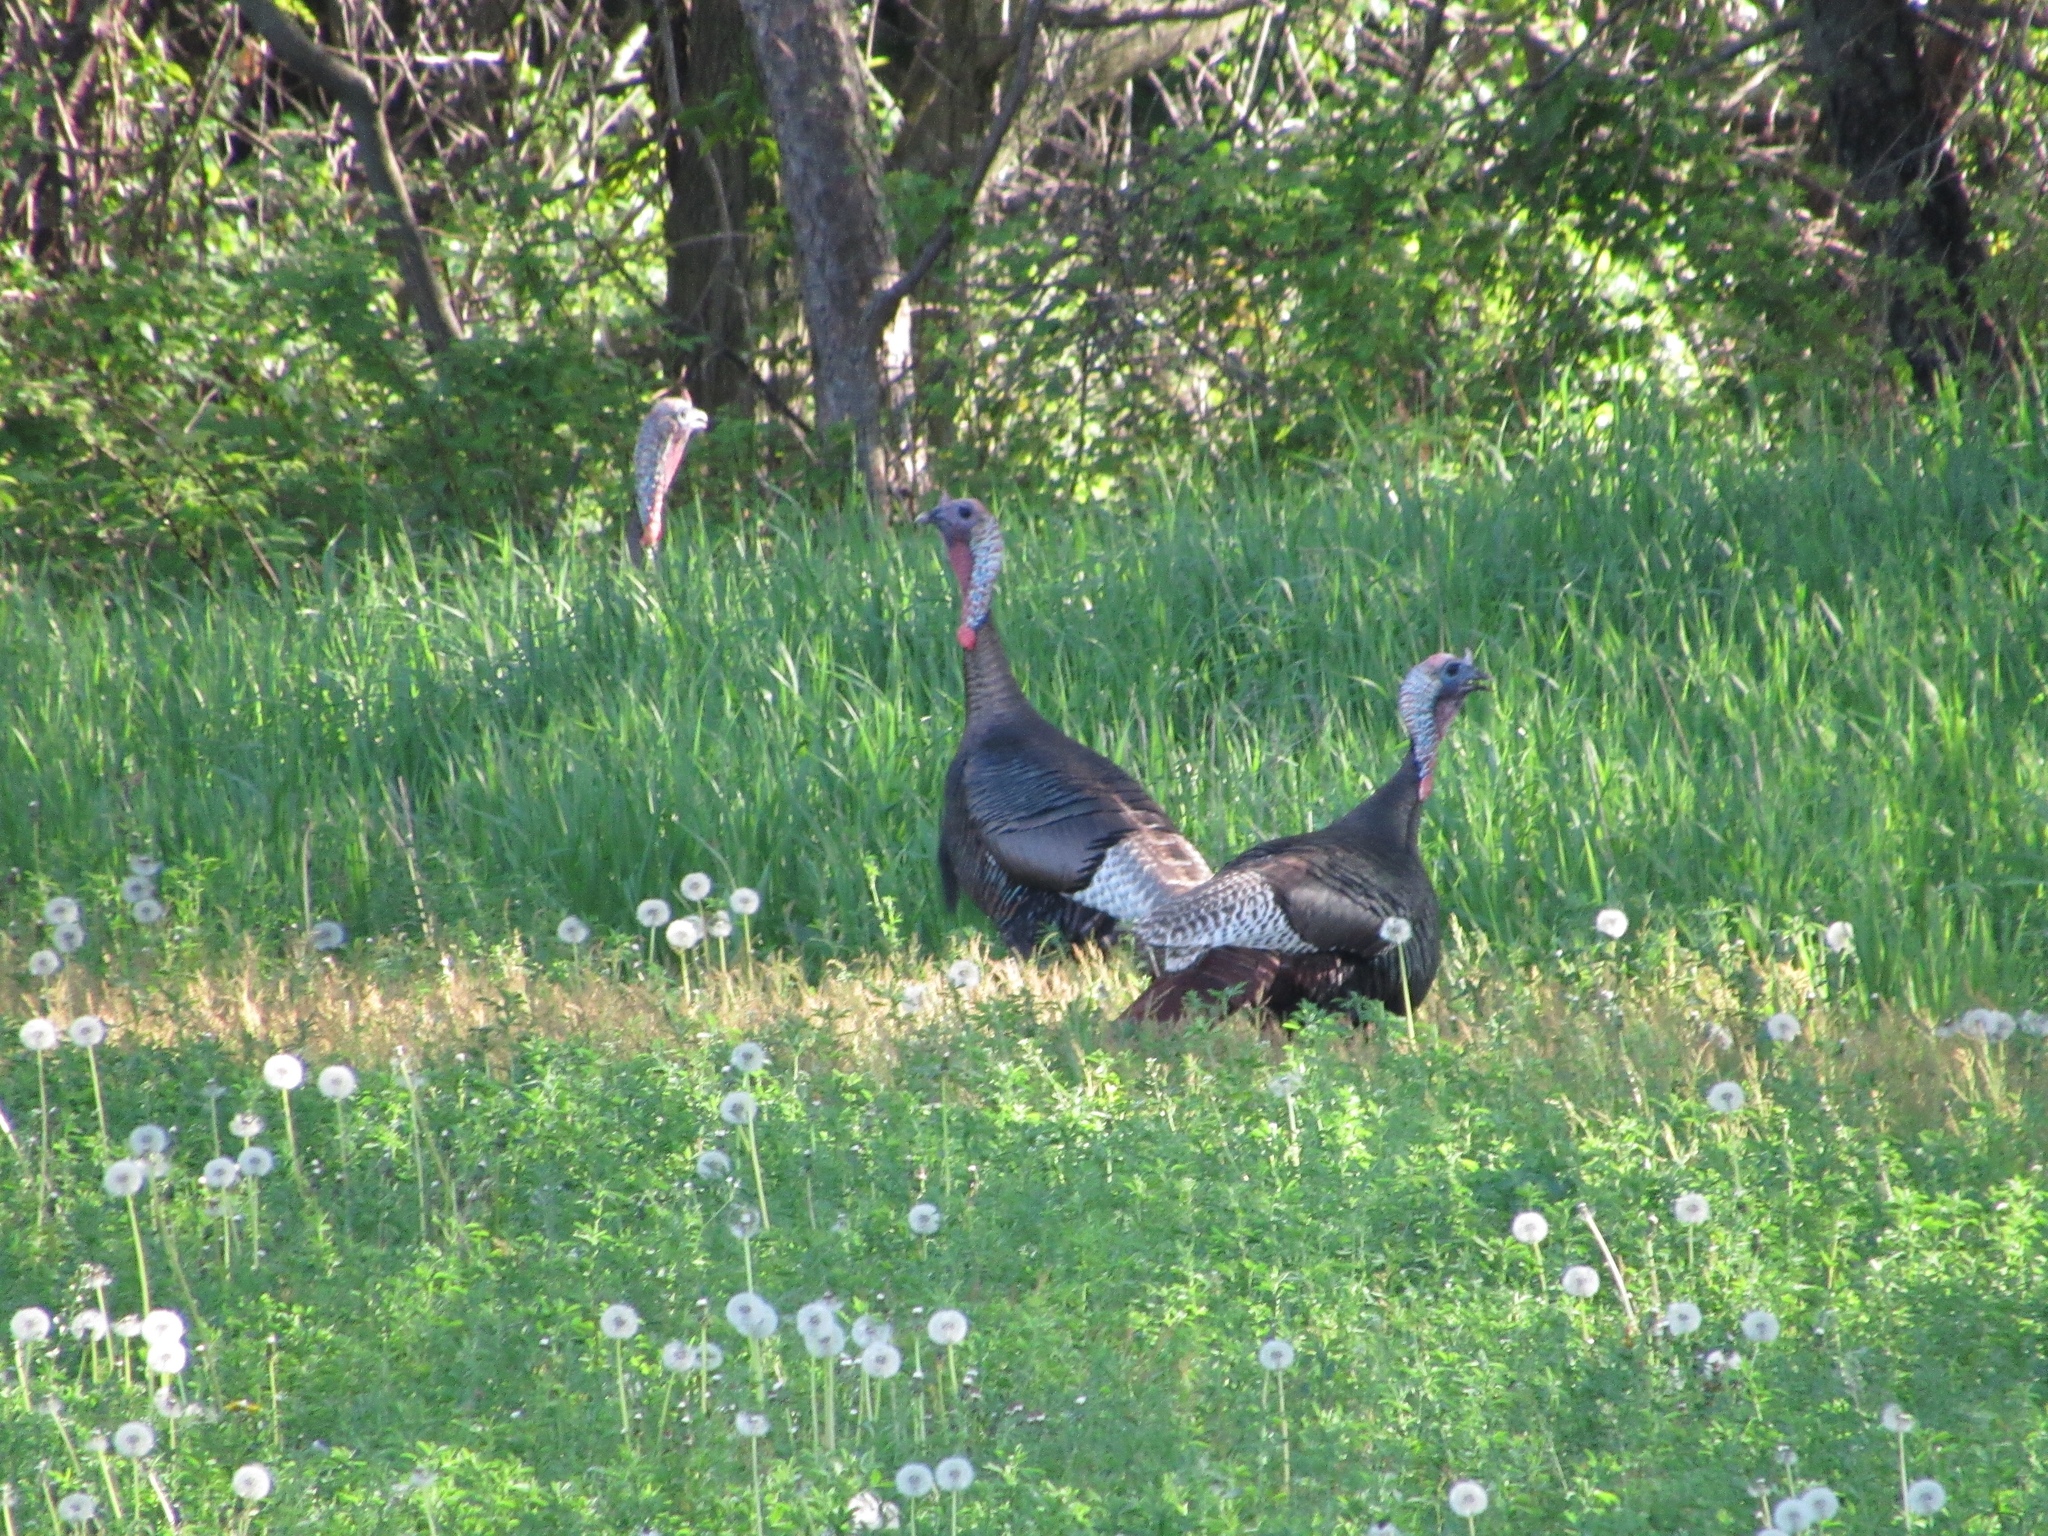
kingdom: Animalia
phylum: Chordata
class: Aves
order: Galliformes
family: Phasianidae
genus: Meleagris
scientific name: Meleagris gallopavo
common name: Wild turkey
